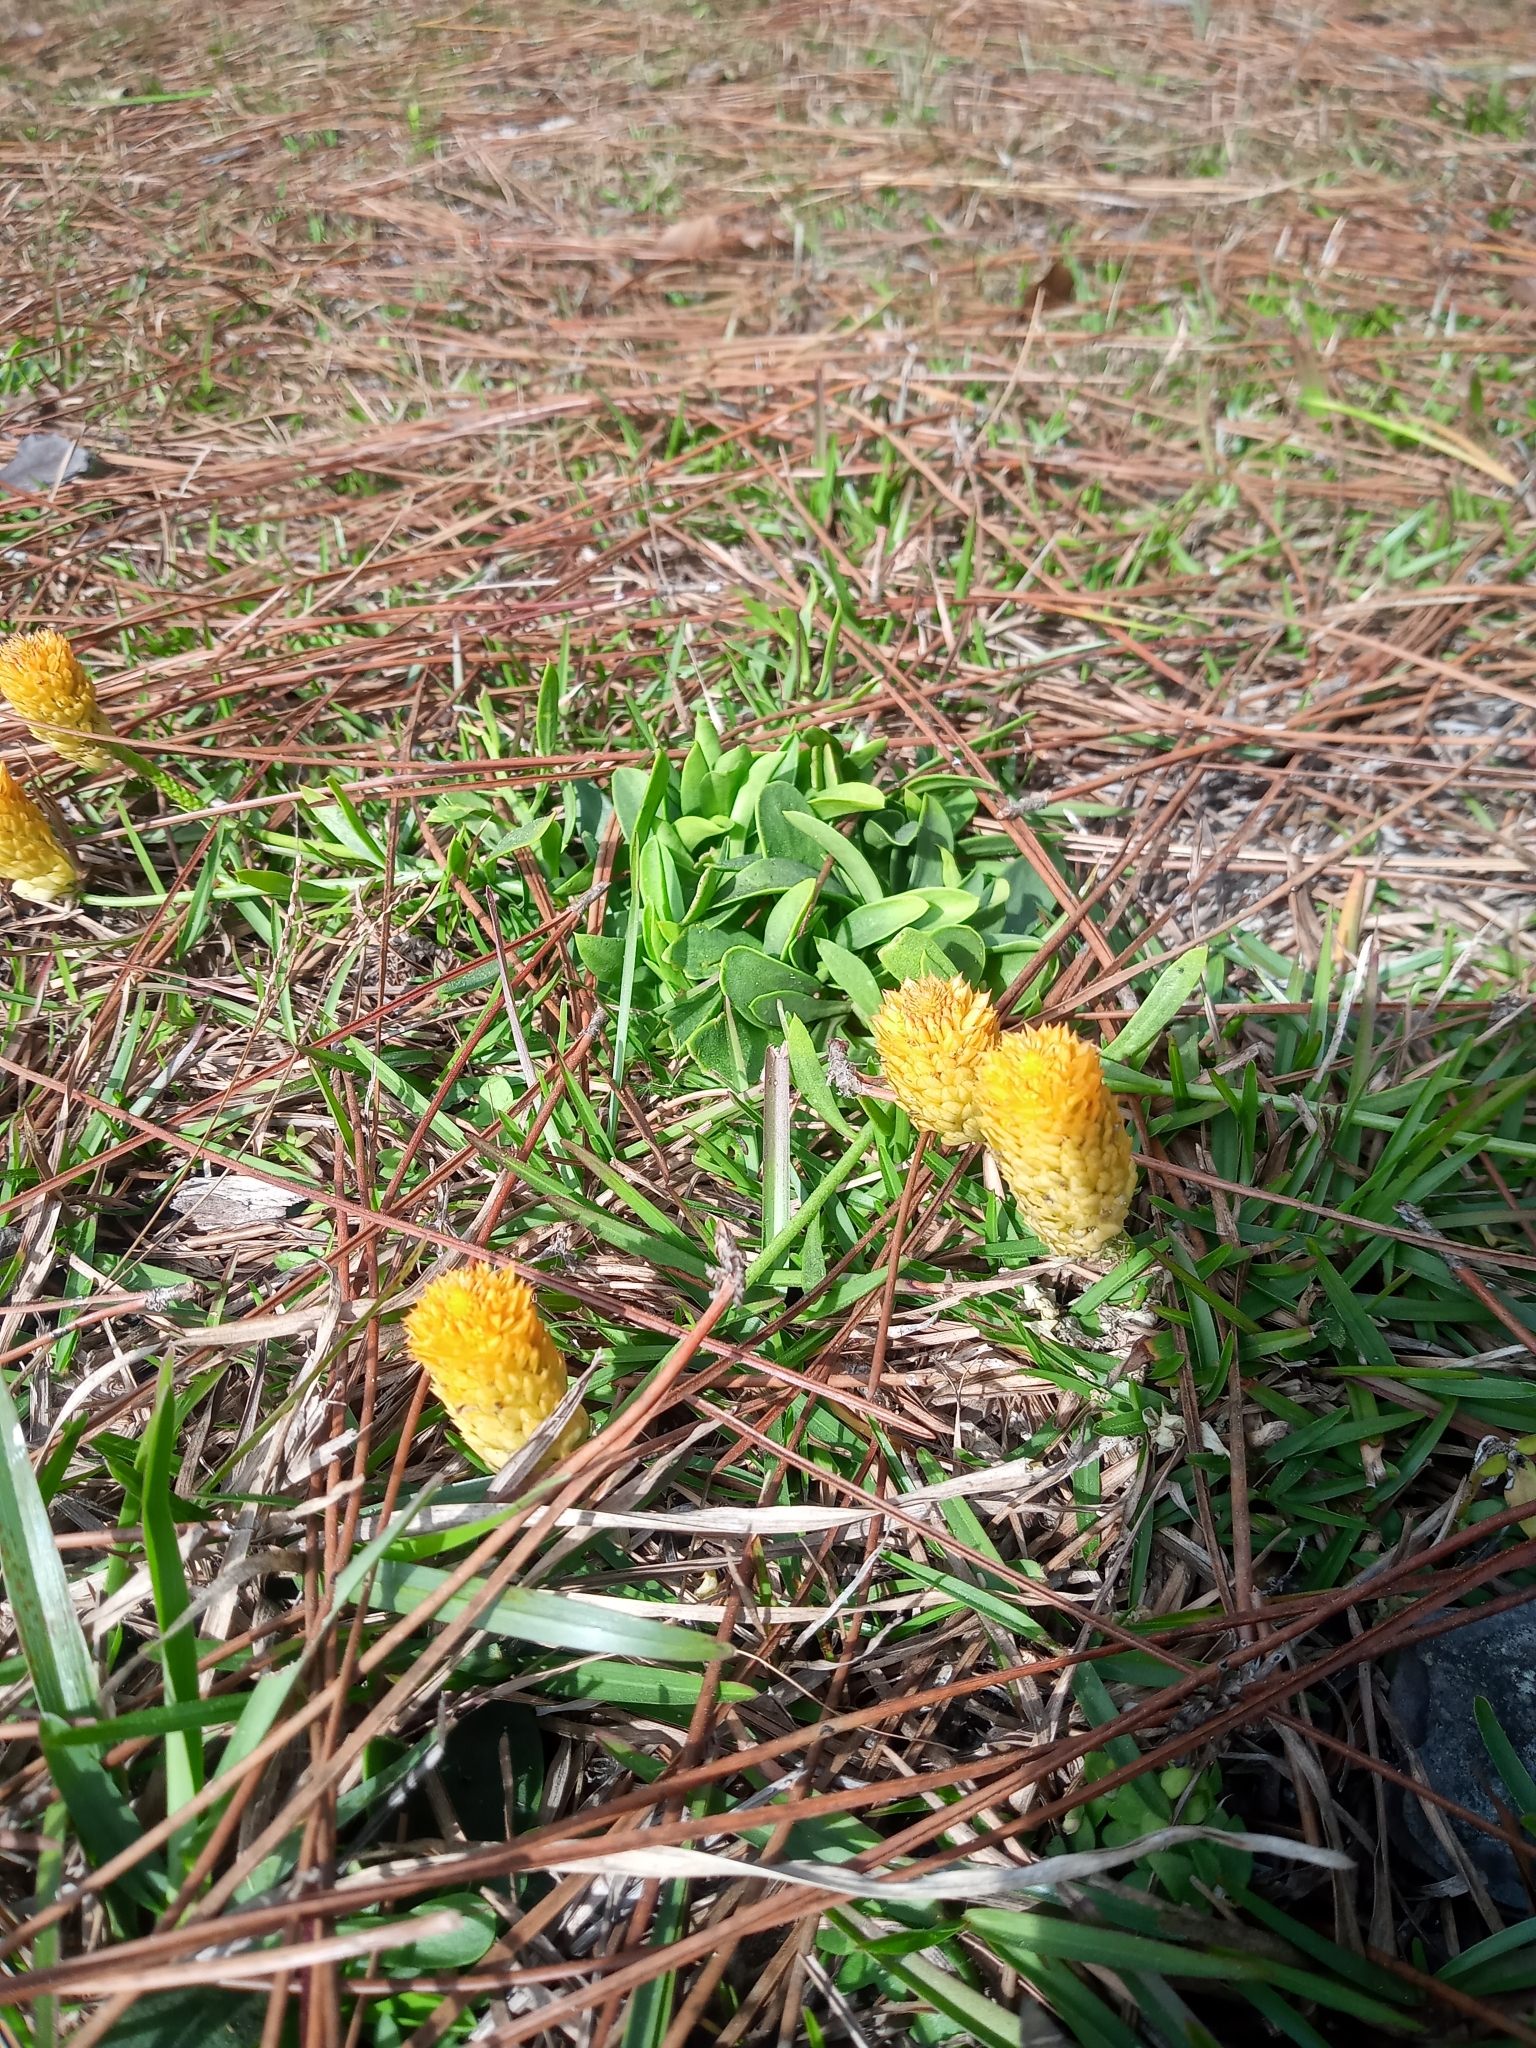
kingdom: Plantae
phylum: Tracheophyta
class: Magnoliopsida
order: Fabales
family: Polygalaceae
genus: Polygala
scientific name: Polygala lutea
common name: Orange milkwort
